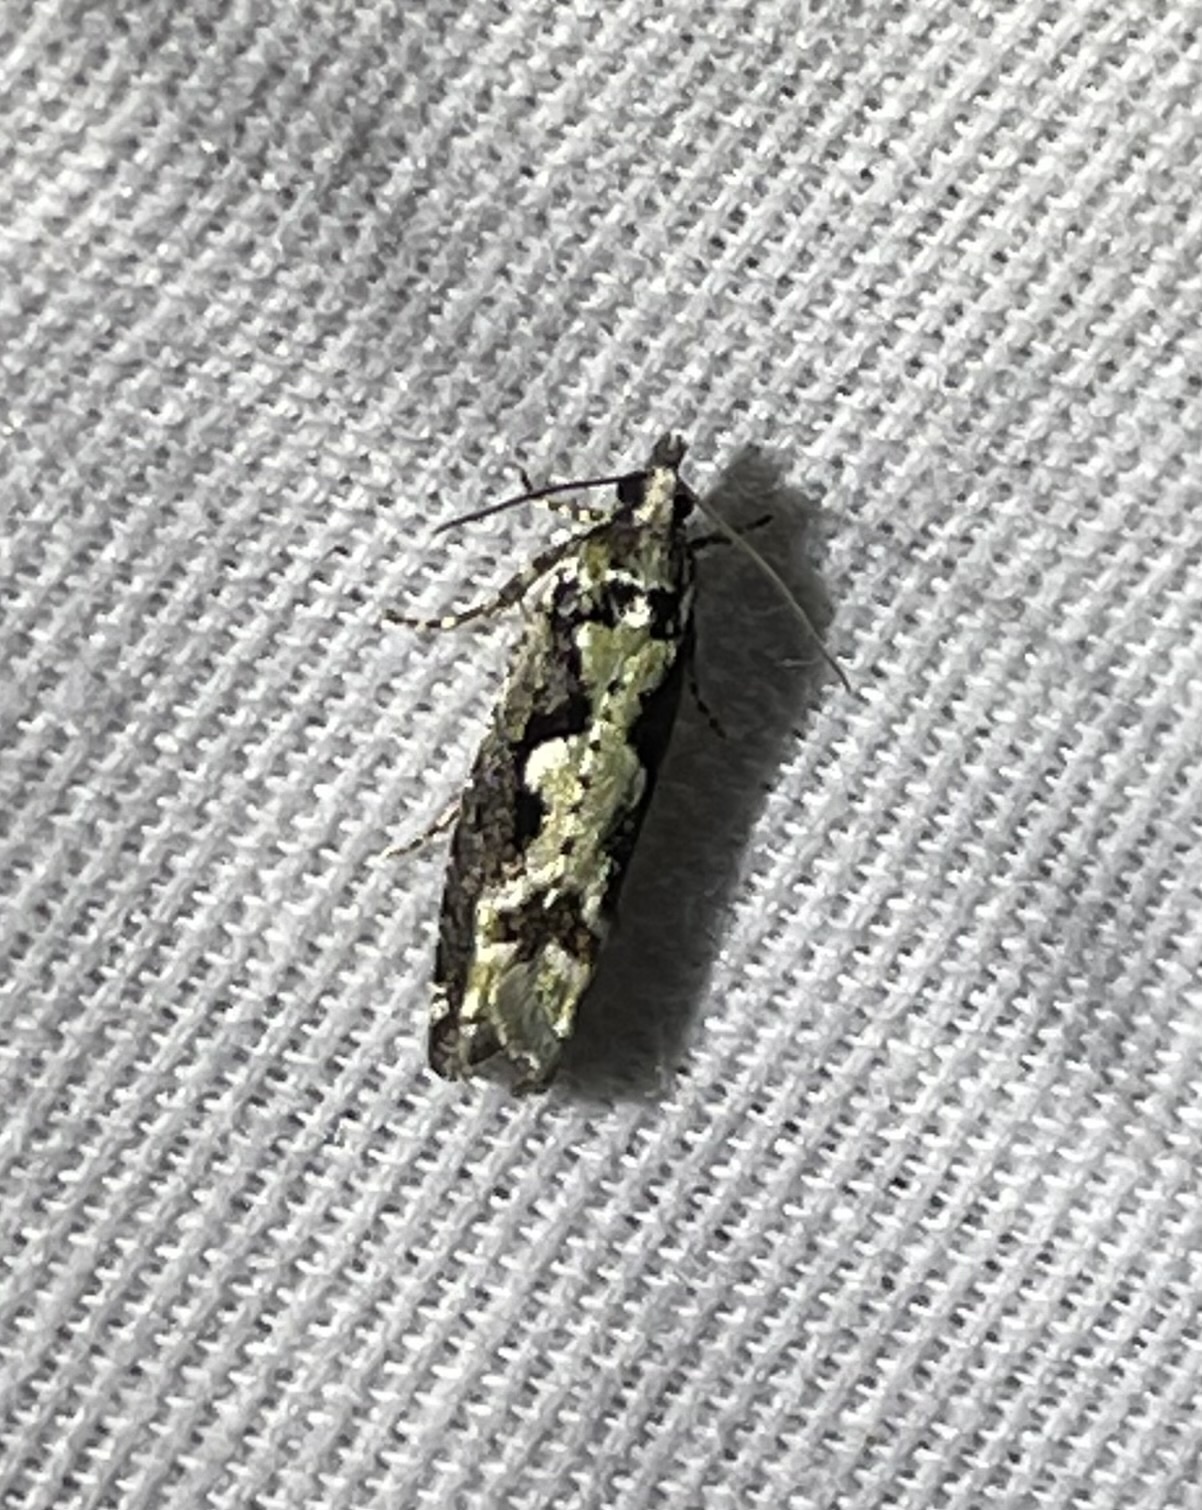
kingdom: Animalia
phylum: Arthropoda
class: Insecta
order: Lepidoptera
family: Tortricidae
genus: Chimoptesis
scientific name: Chimoptesis pennsylvaniana
